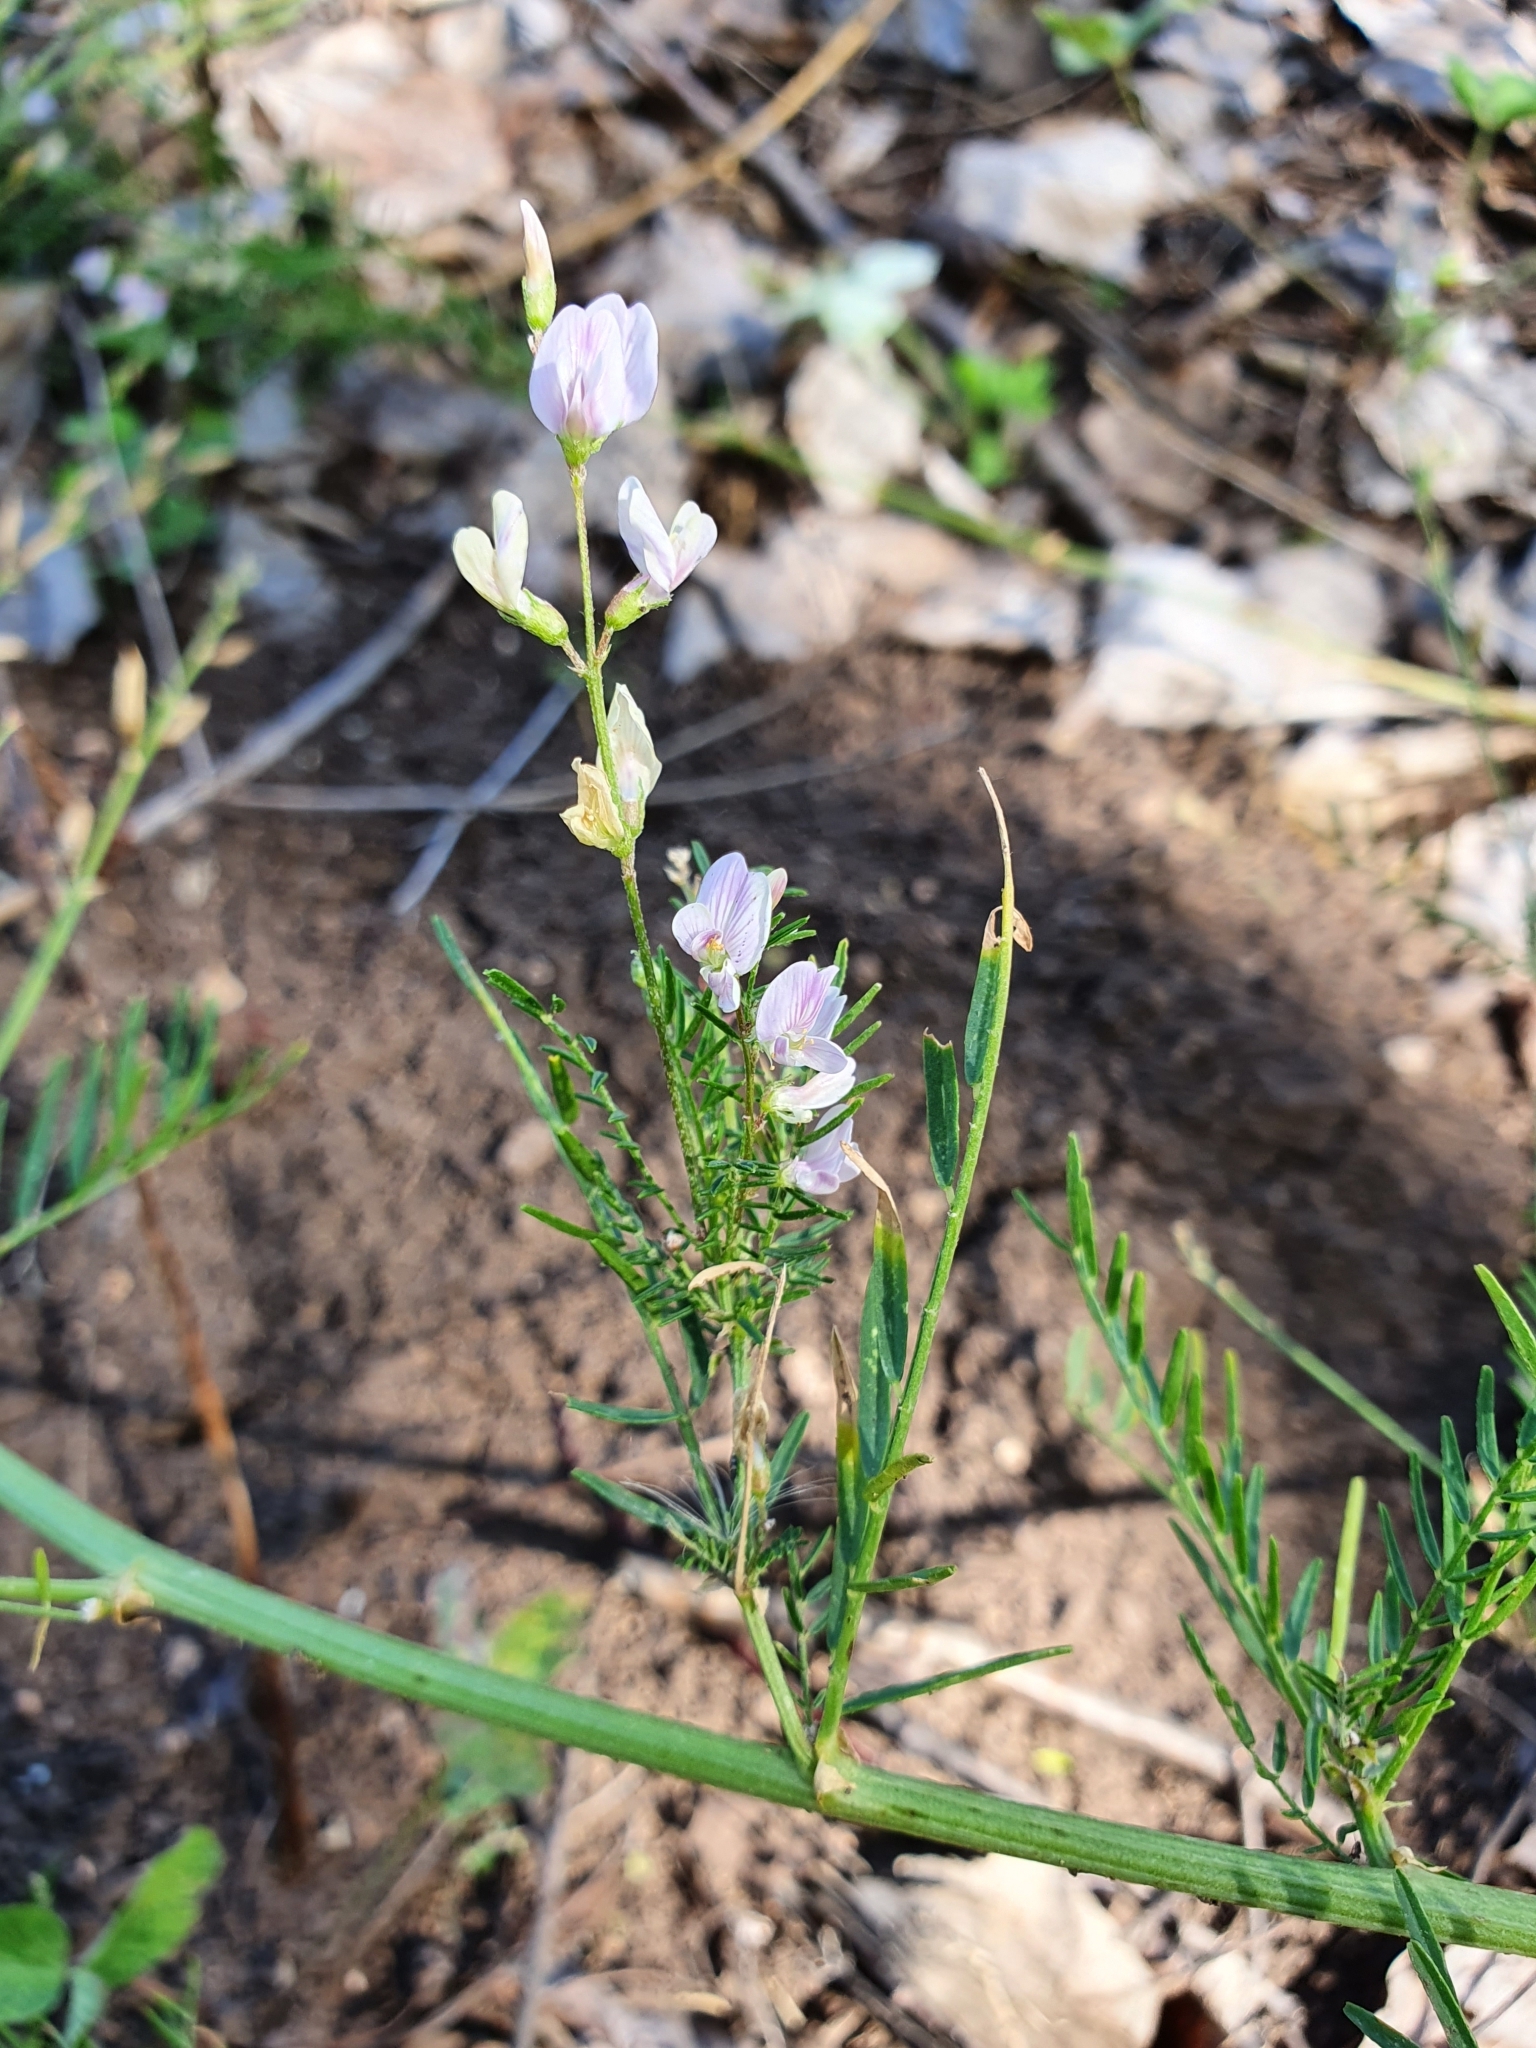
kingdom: Plantae
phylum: Tracheophyta
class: Magnoliopsida
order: Fabales
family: Fabaceae
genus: Astragalus
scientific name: Astragalus sulcatus
